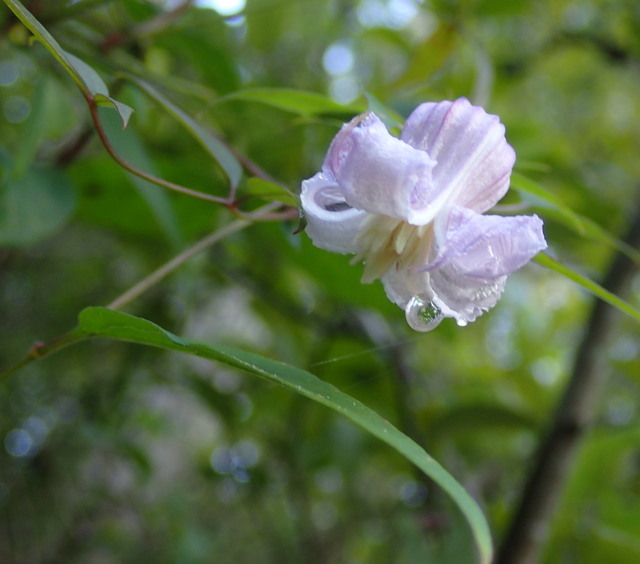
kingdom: Plantae
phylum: Tracheophyta
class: Magnoliopsida
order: Ranunculales
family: Ranunculaceae
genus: Clematis
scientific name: Clematis crispa
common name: Curly clematis
